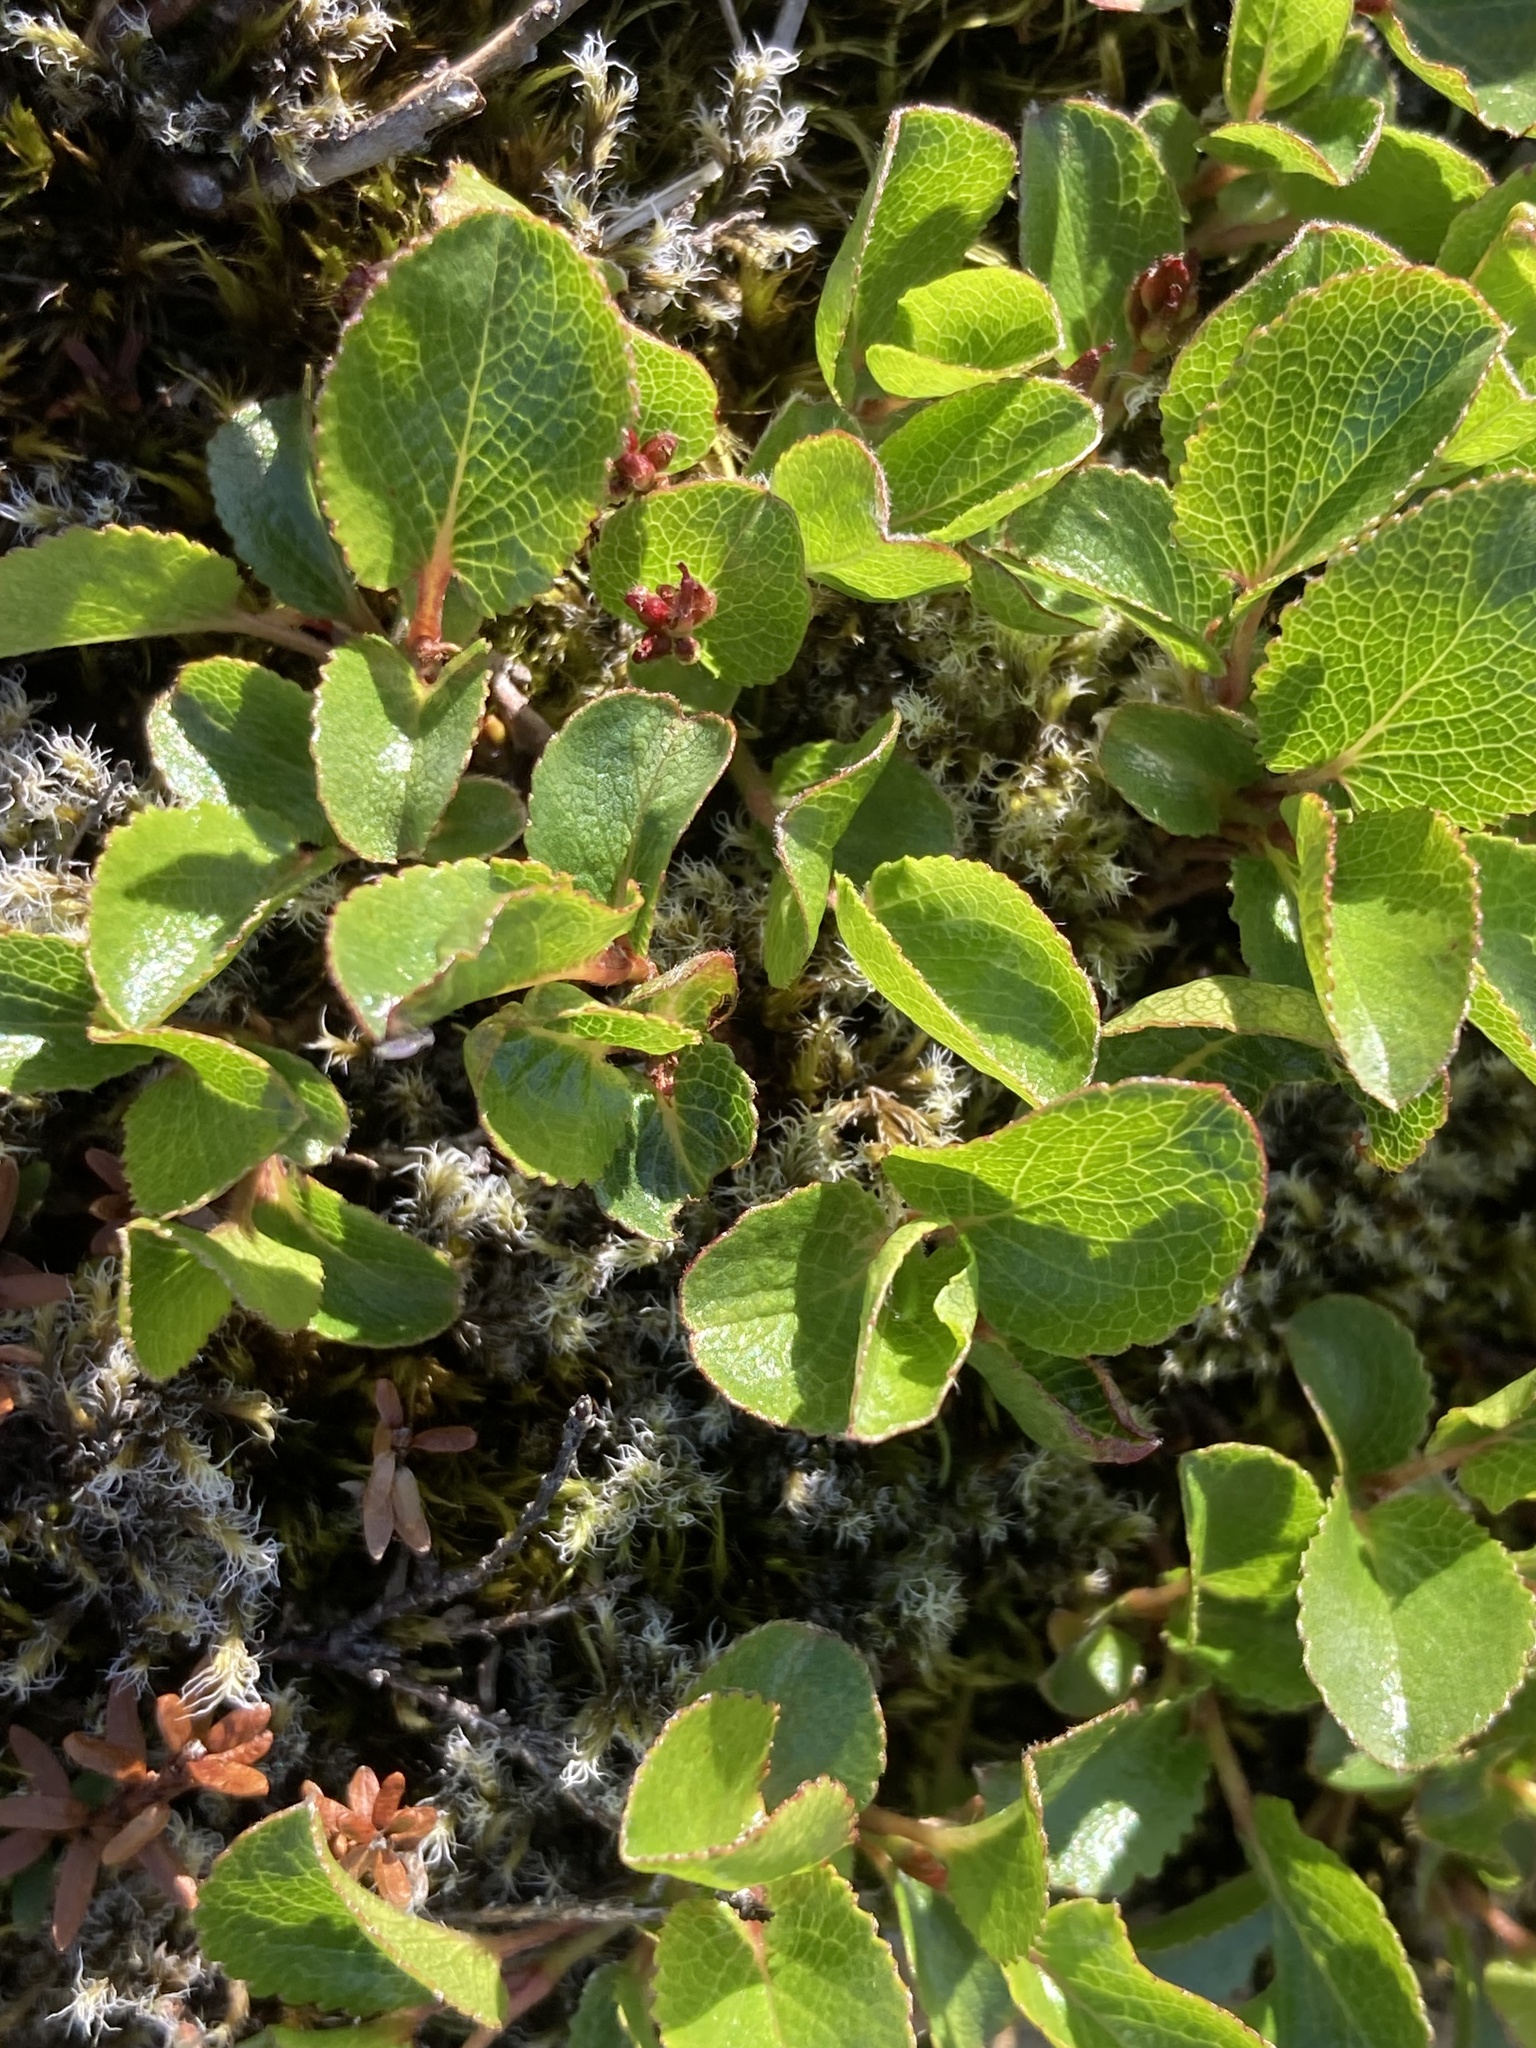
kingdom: Plantae
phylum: Tracheophyta
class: Magnoliopsida
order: Malpighiales
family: Salicaceae
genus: Salix
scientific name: Salix herbacea
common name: Dwarf willow
